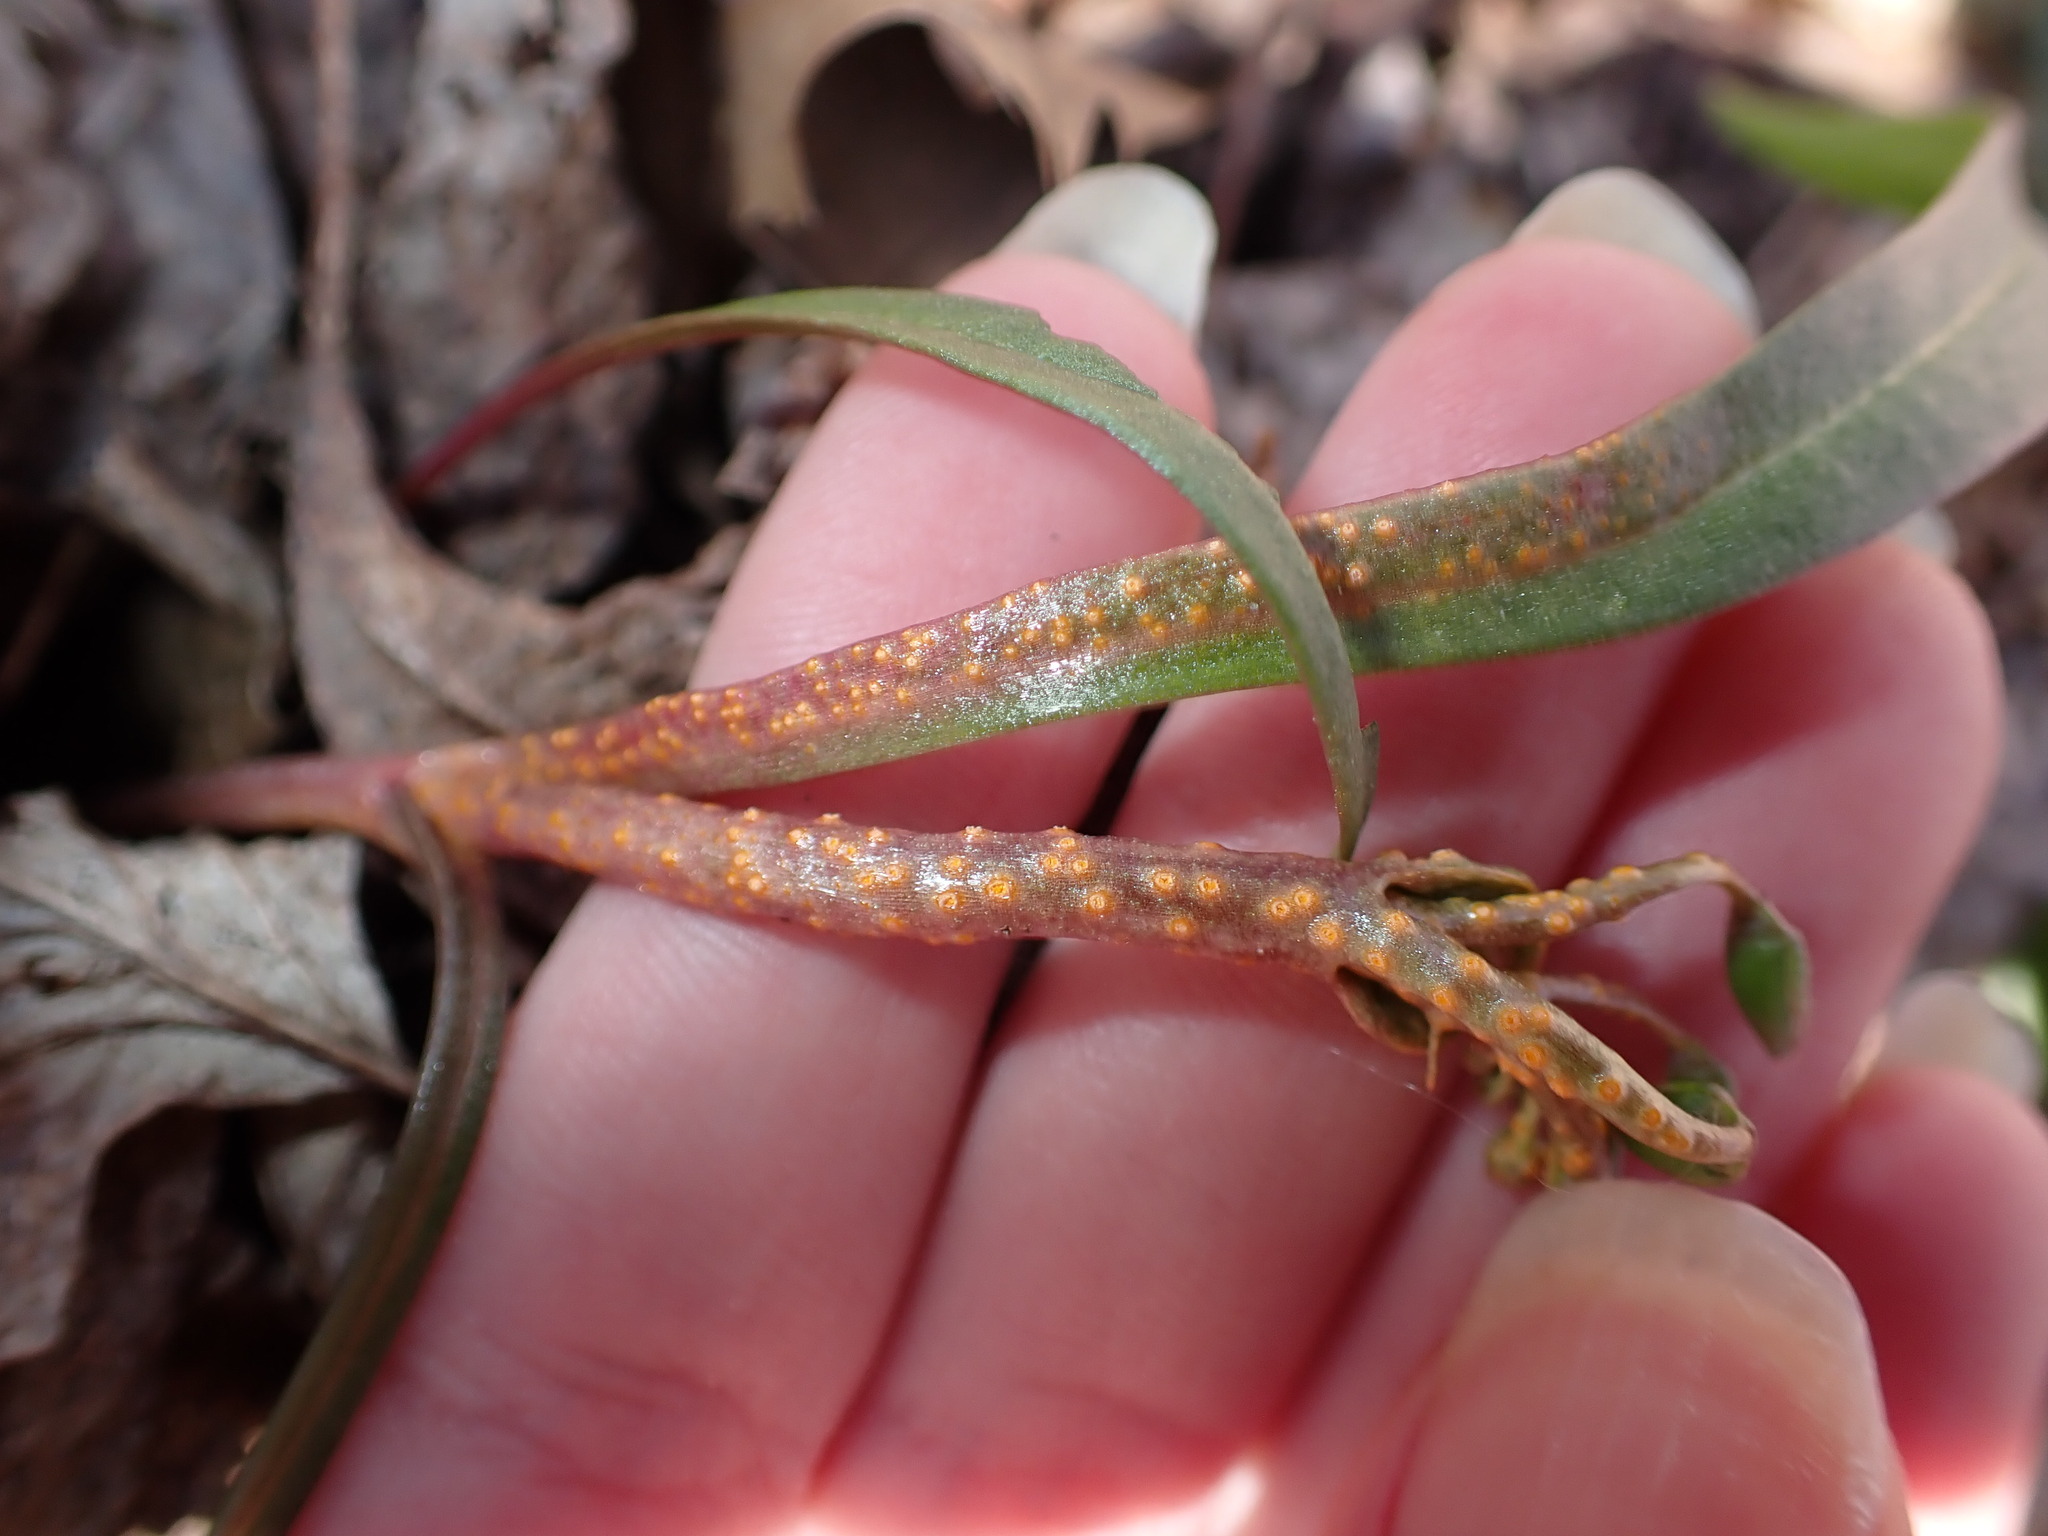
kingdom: Fungi
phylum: Basidiomycota
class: Pucciniomycetes
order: Pucciniales
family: Pucciniaceae
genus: Puccinia
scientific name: Puccinia mariae-wilsoniae
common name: Spring beauty rust
